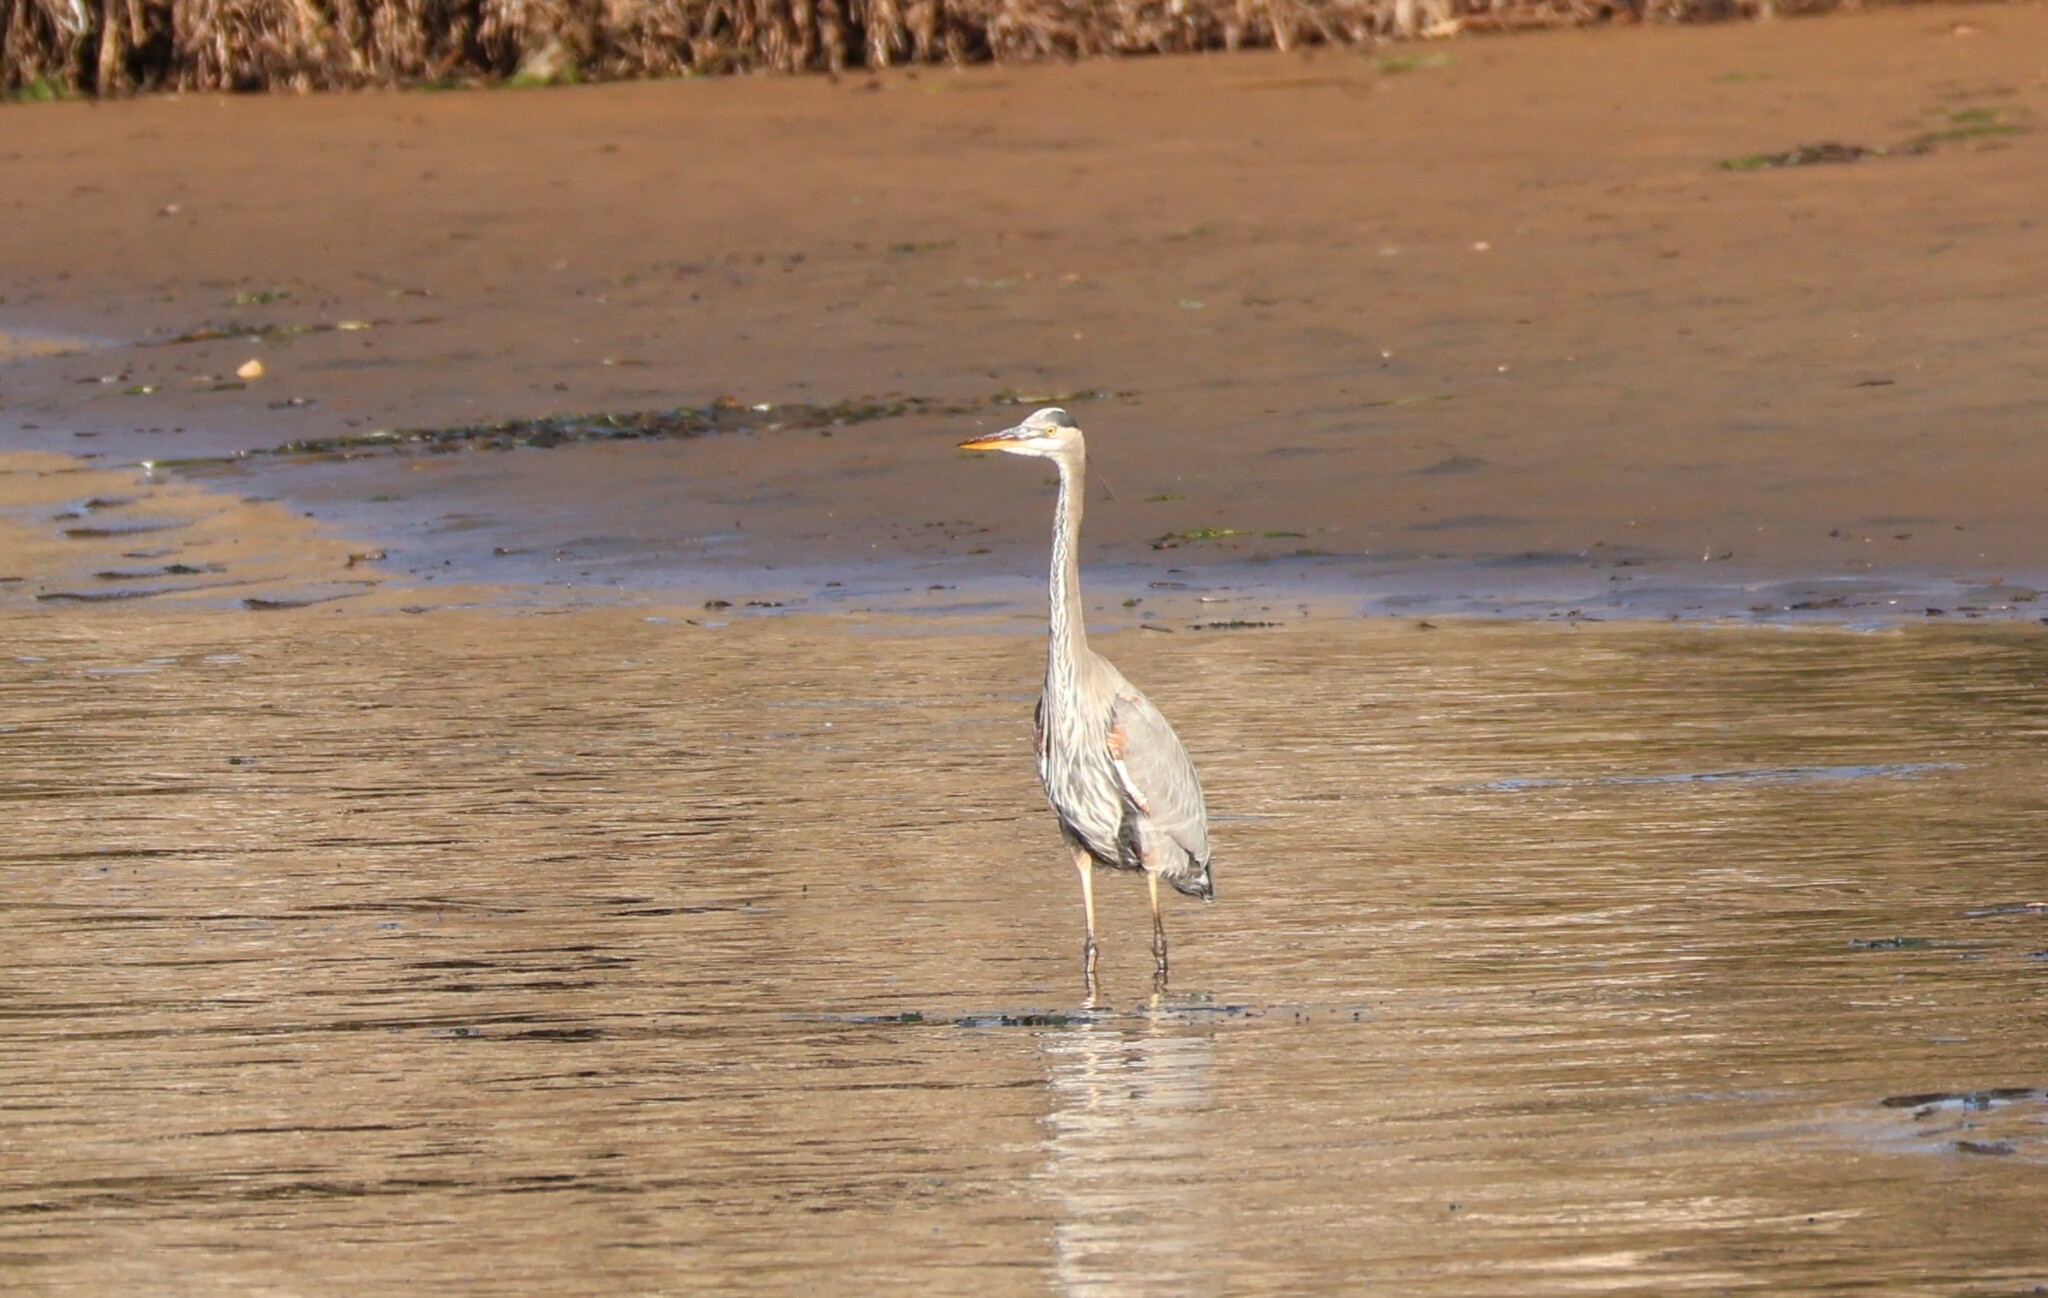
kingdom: Animalia
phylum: Chordata
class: Aves
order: Pelecaniformes
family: Ardeidae
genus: Ardea
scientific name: Ardea herodias
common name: Great blue heron
